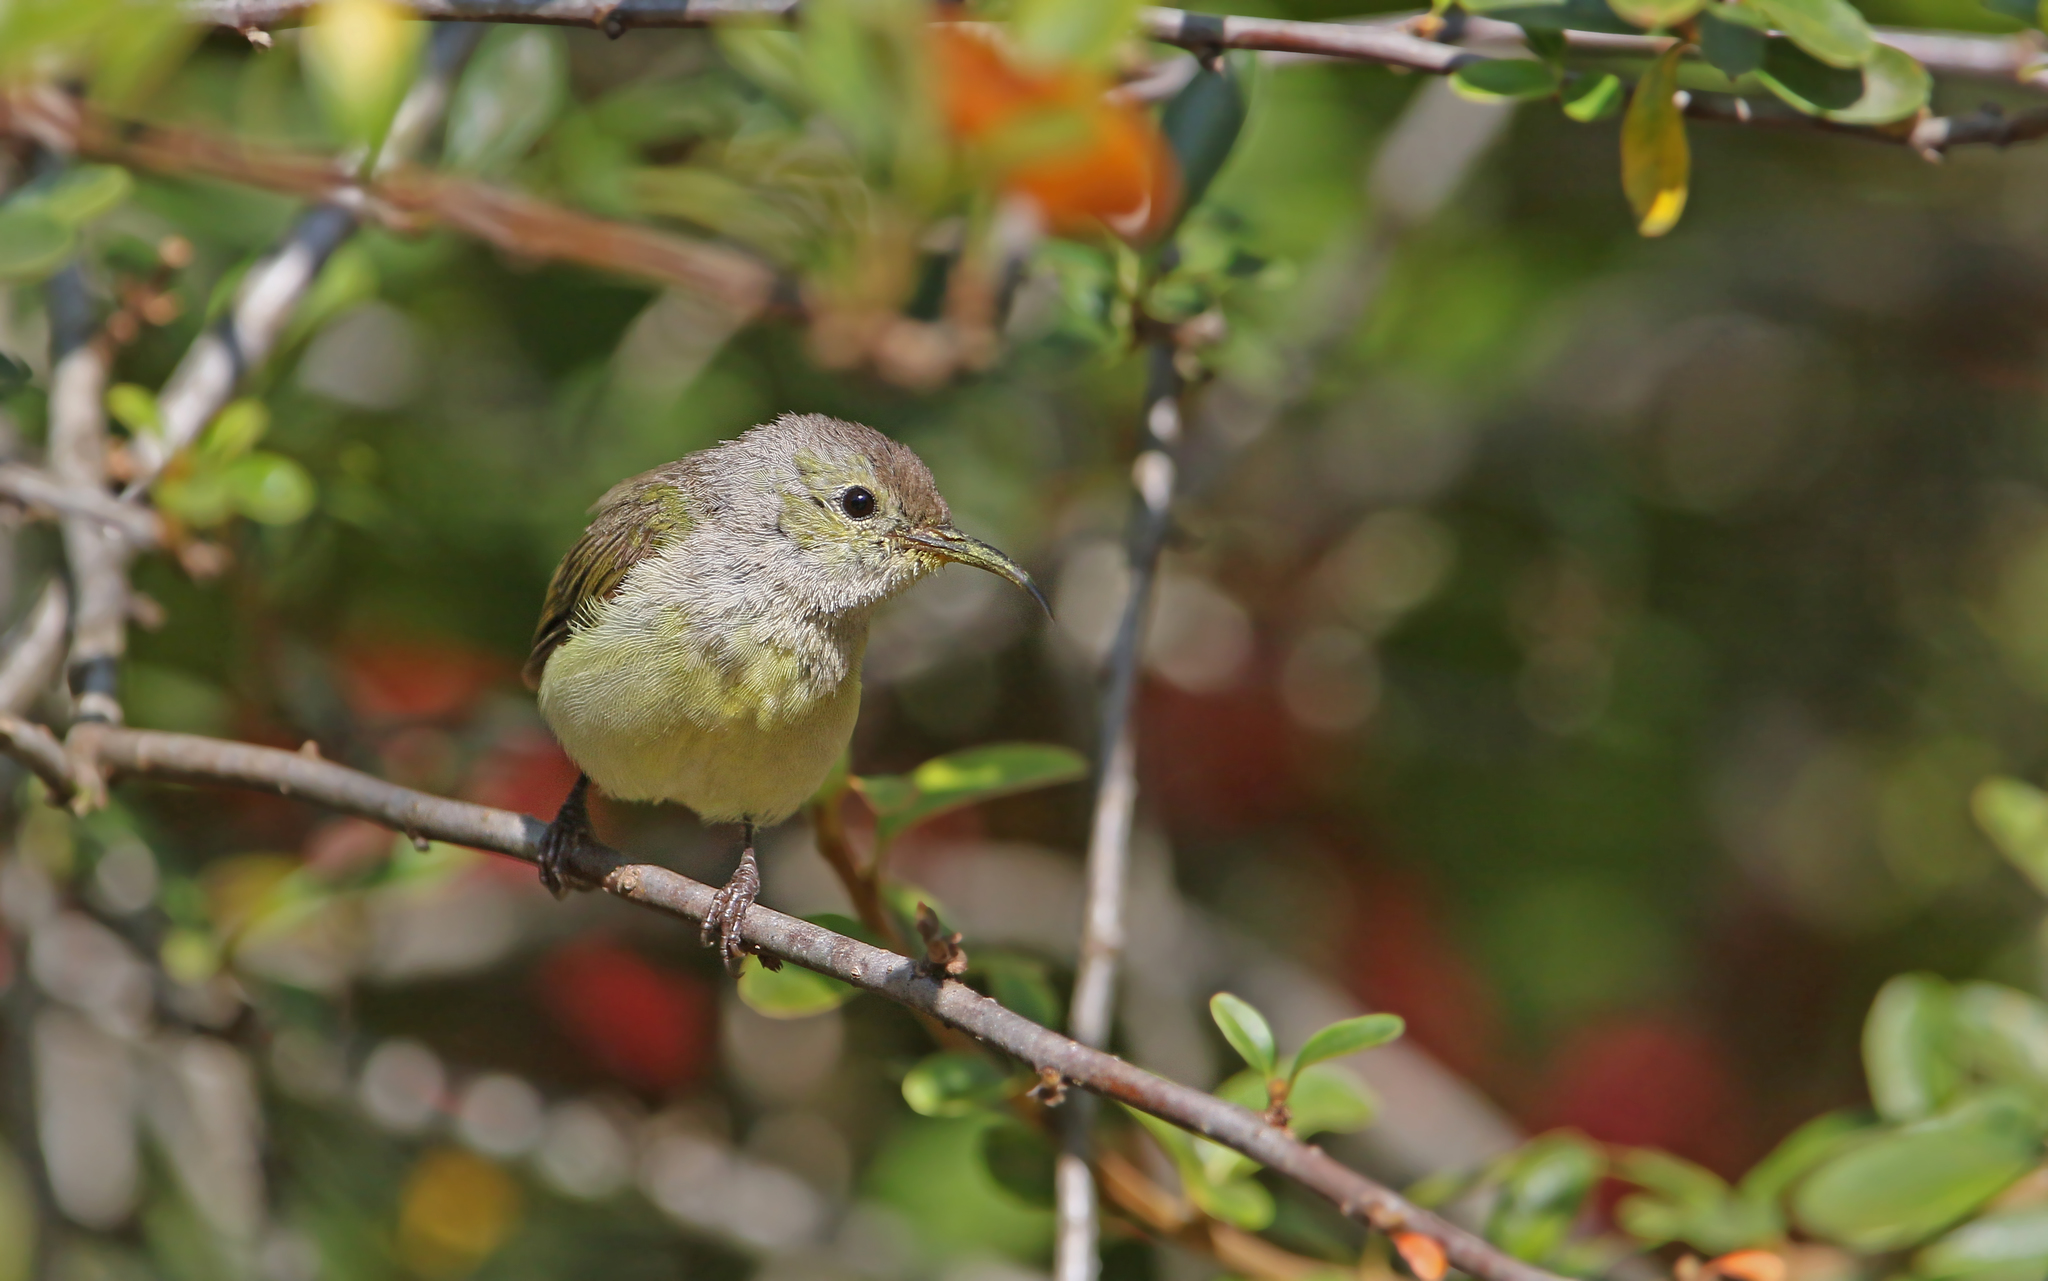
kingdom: Animalia
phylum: Chordata
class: Aves
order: Passeriformes
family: Nectariniidae
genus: Aethopyga
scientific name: Aethopyga gouldiae
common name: Mrs. gould's sunbird
